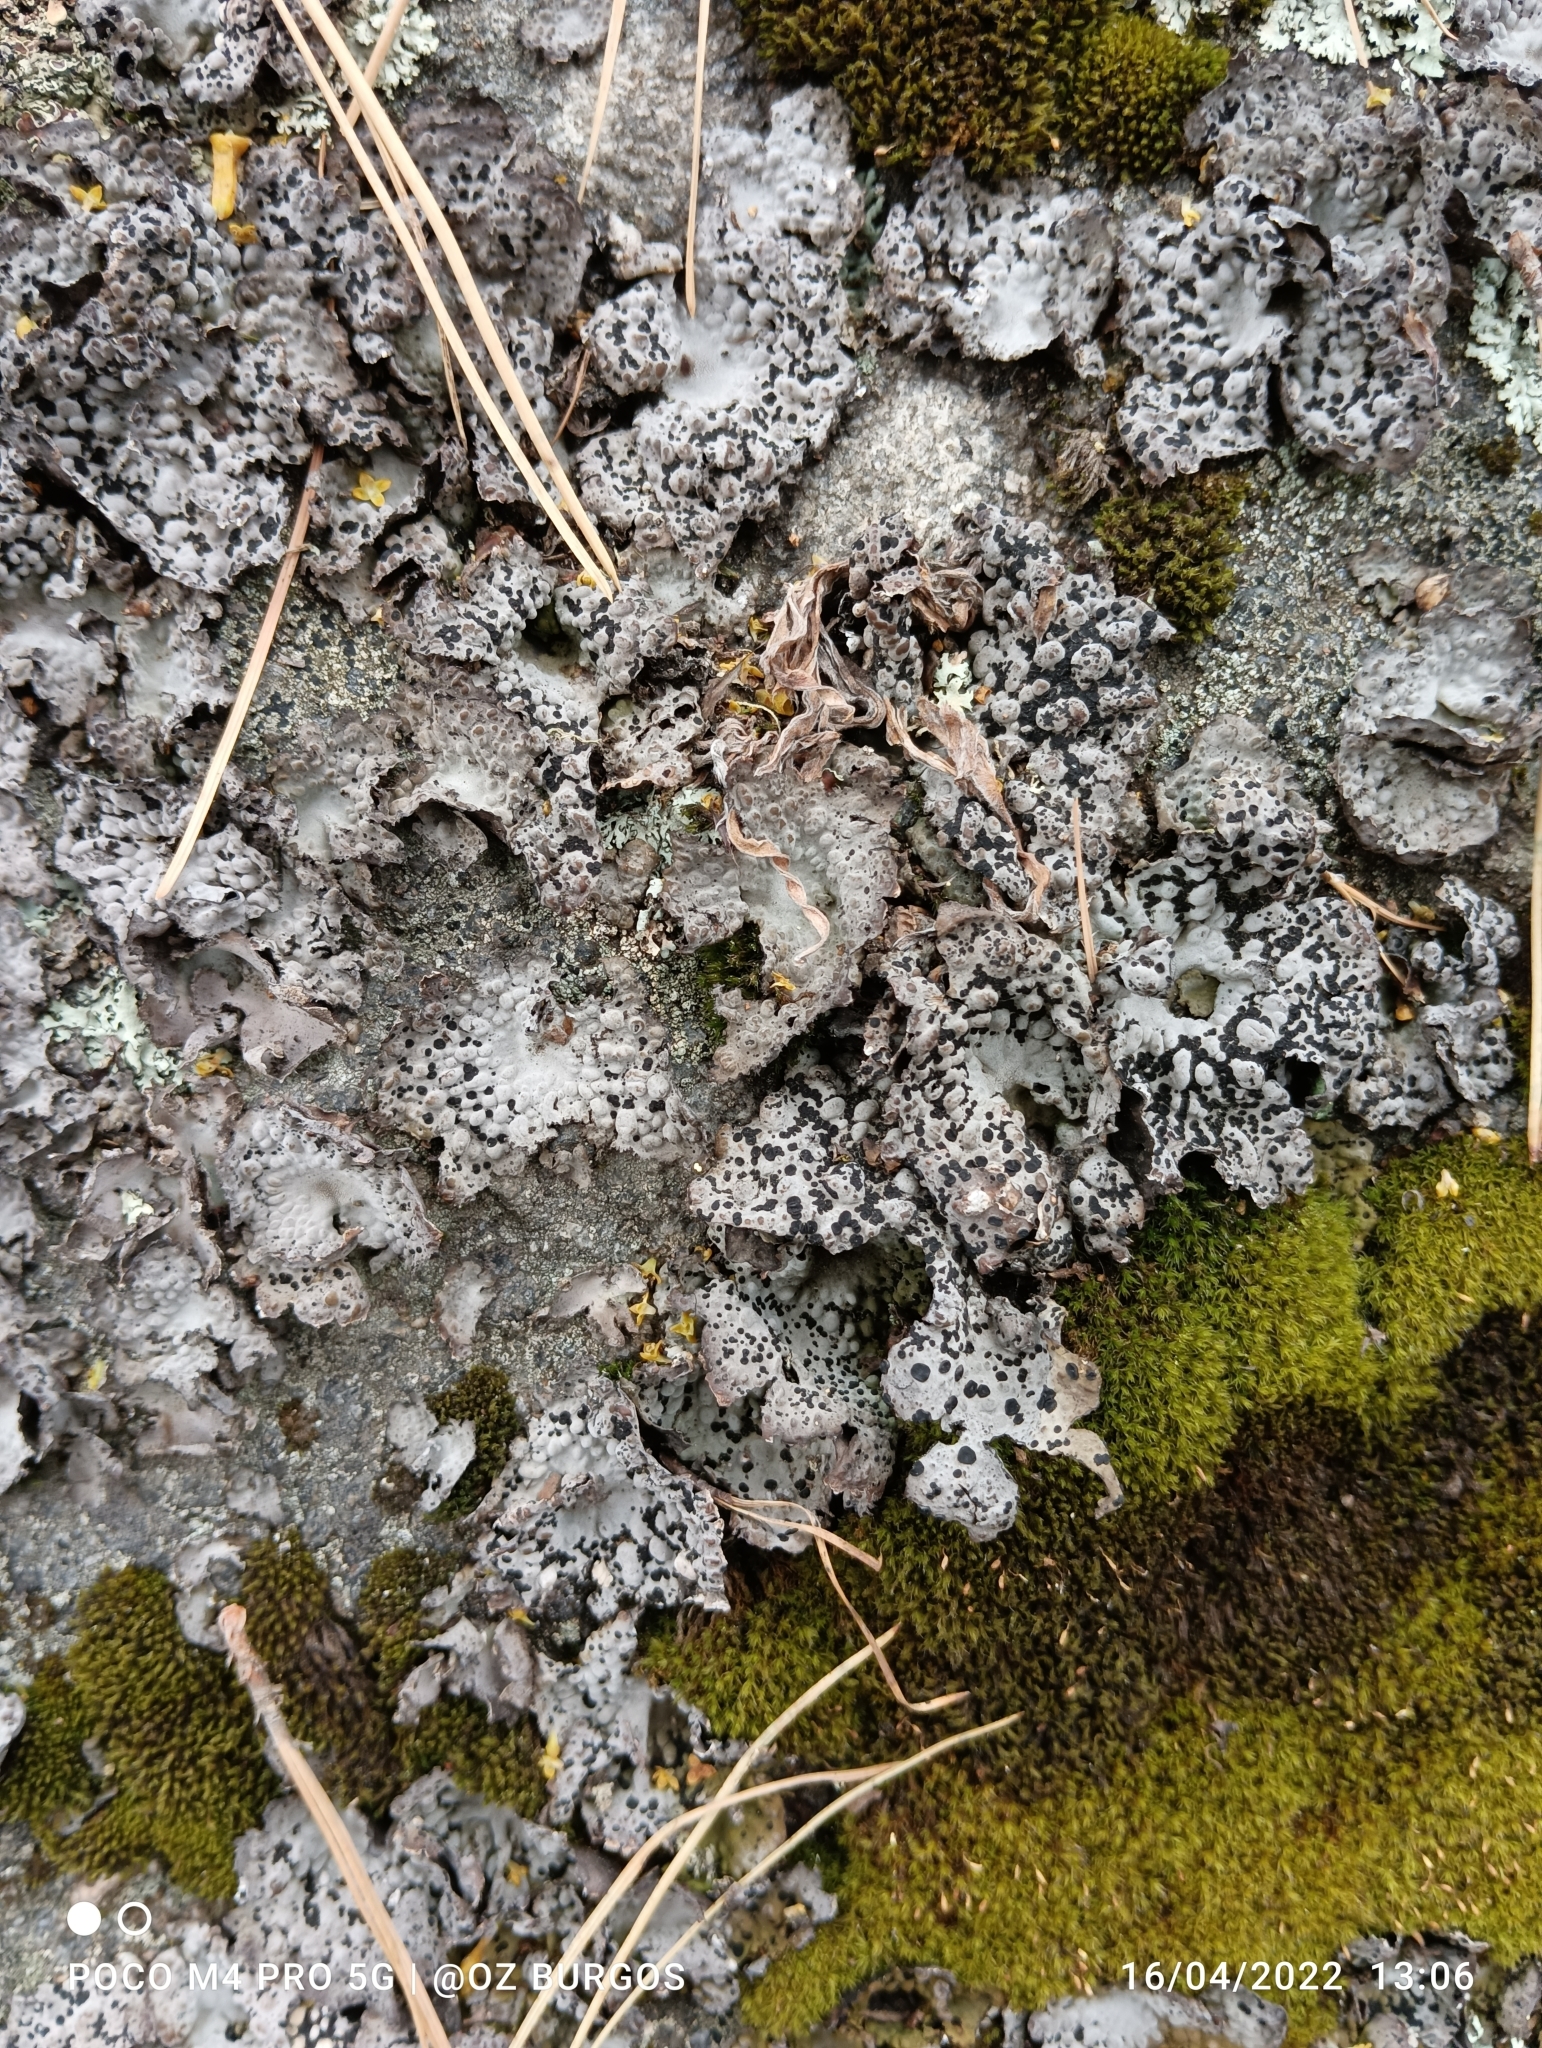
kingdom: Fungi
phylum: Ascomycota
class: Lecanoromycetes
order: Umbilicariales
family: Umbilicariaceae
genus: Lasallia
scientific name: Lasallia papulosa
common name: Common toadskin lichen
